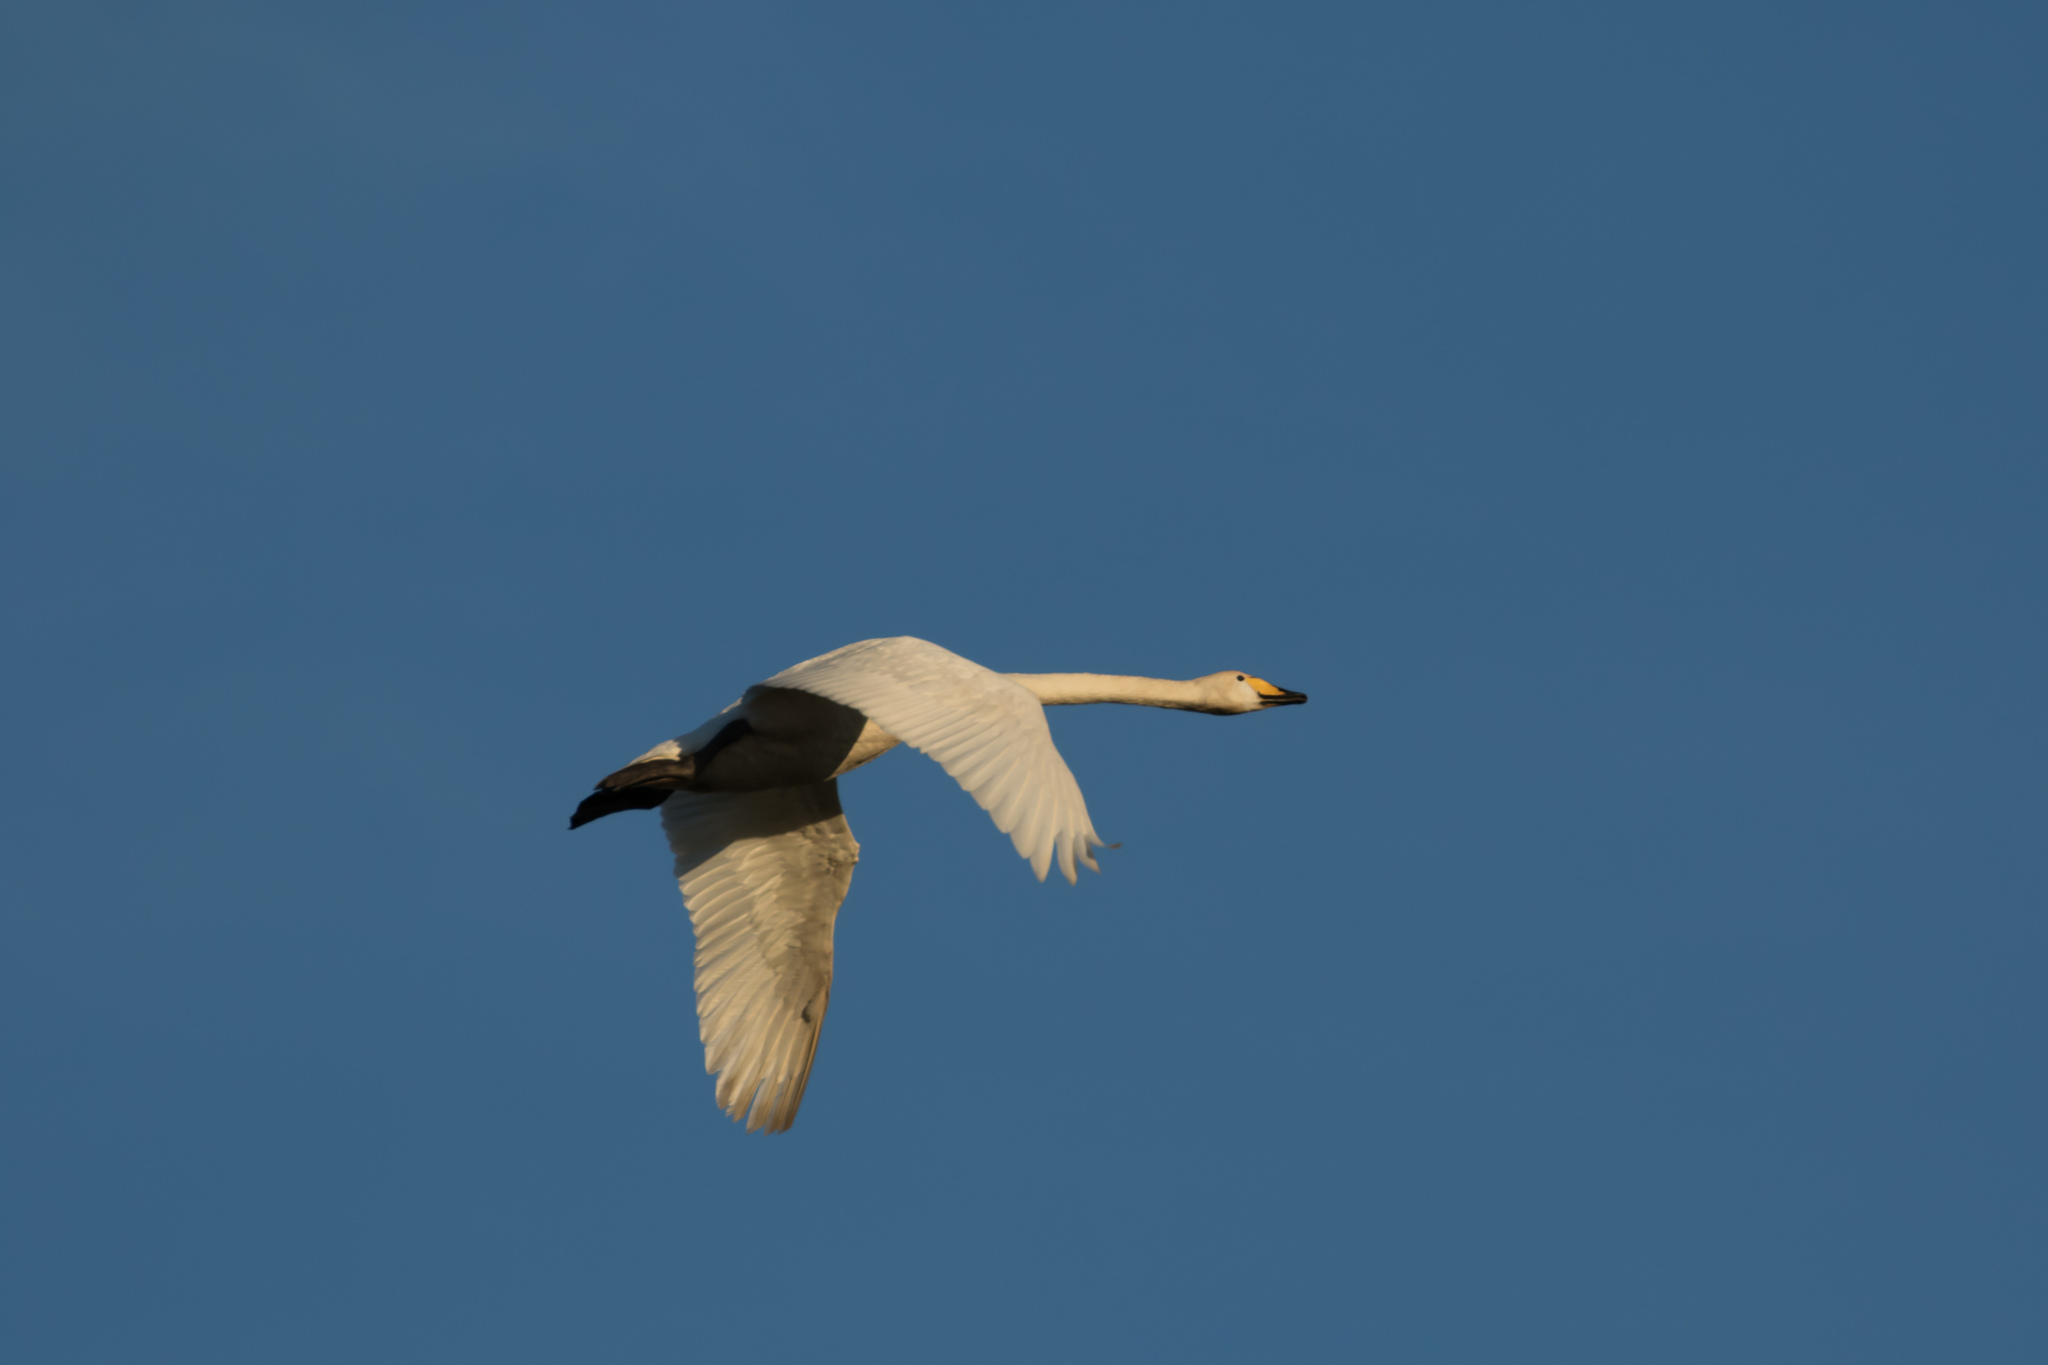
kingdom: Animalia
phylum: Chordata
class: Aves
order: Anseriformes
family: Anatidae
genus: Cygnus
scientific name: Cygnus cygnus
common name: Whooper swan
